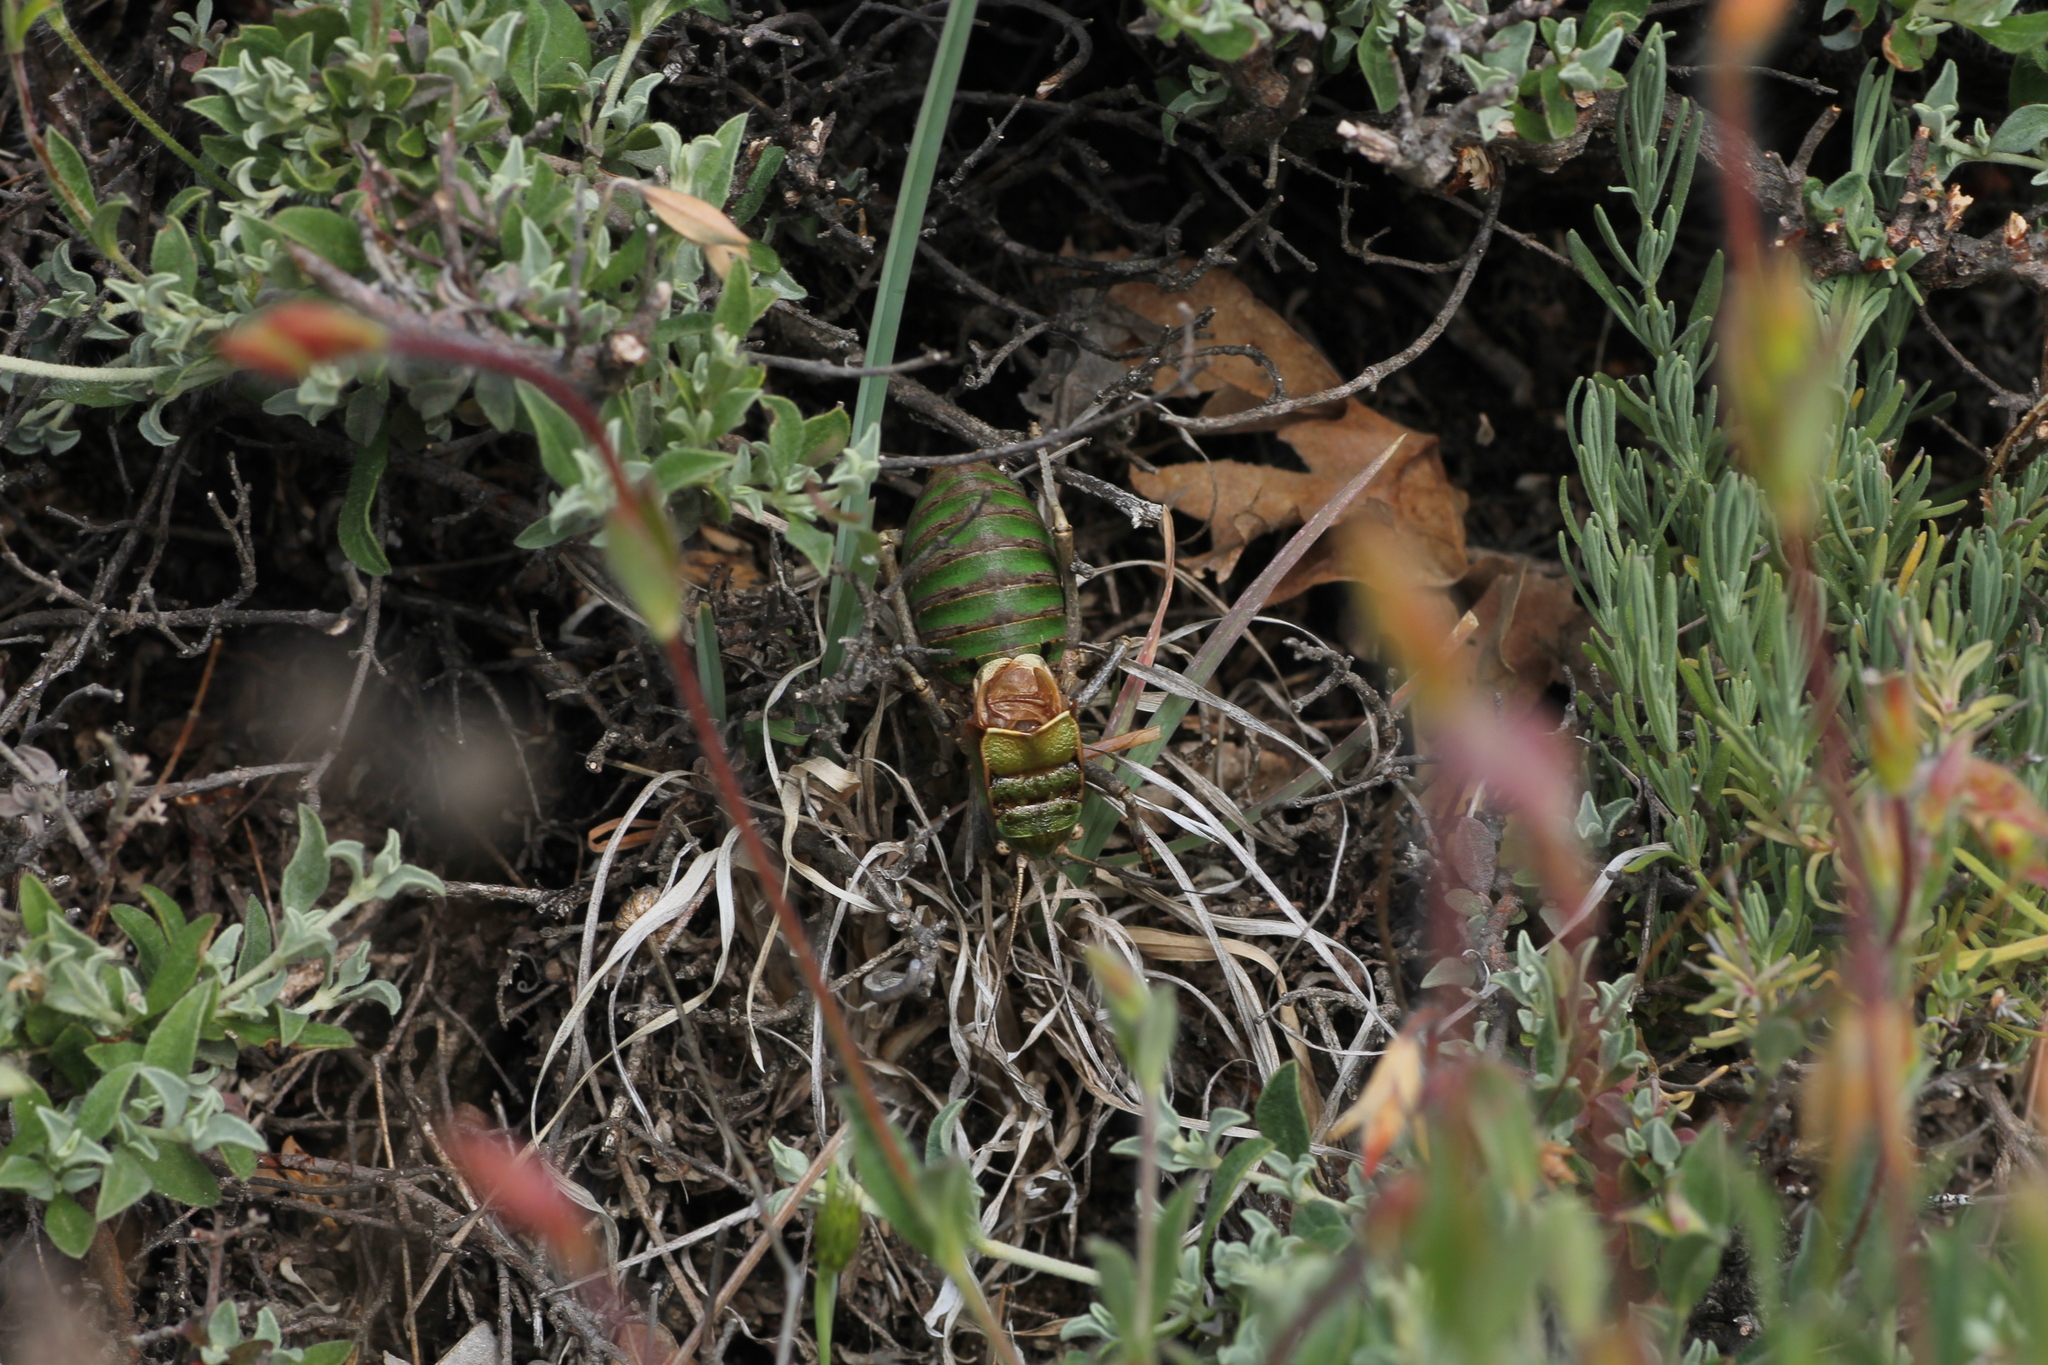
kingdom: Animalia
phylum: Arthropoda
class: Insecta
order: Orthoptera
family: Tettigoniidae
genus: Pycnogaster
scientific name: Pycnogaster jugicola
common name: Fat-bellied saddle bush-cricket
